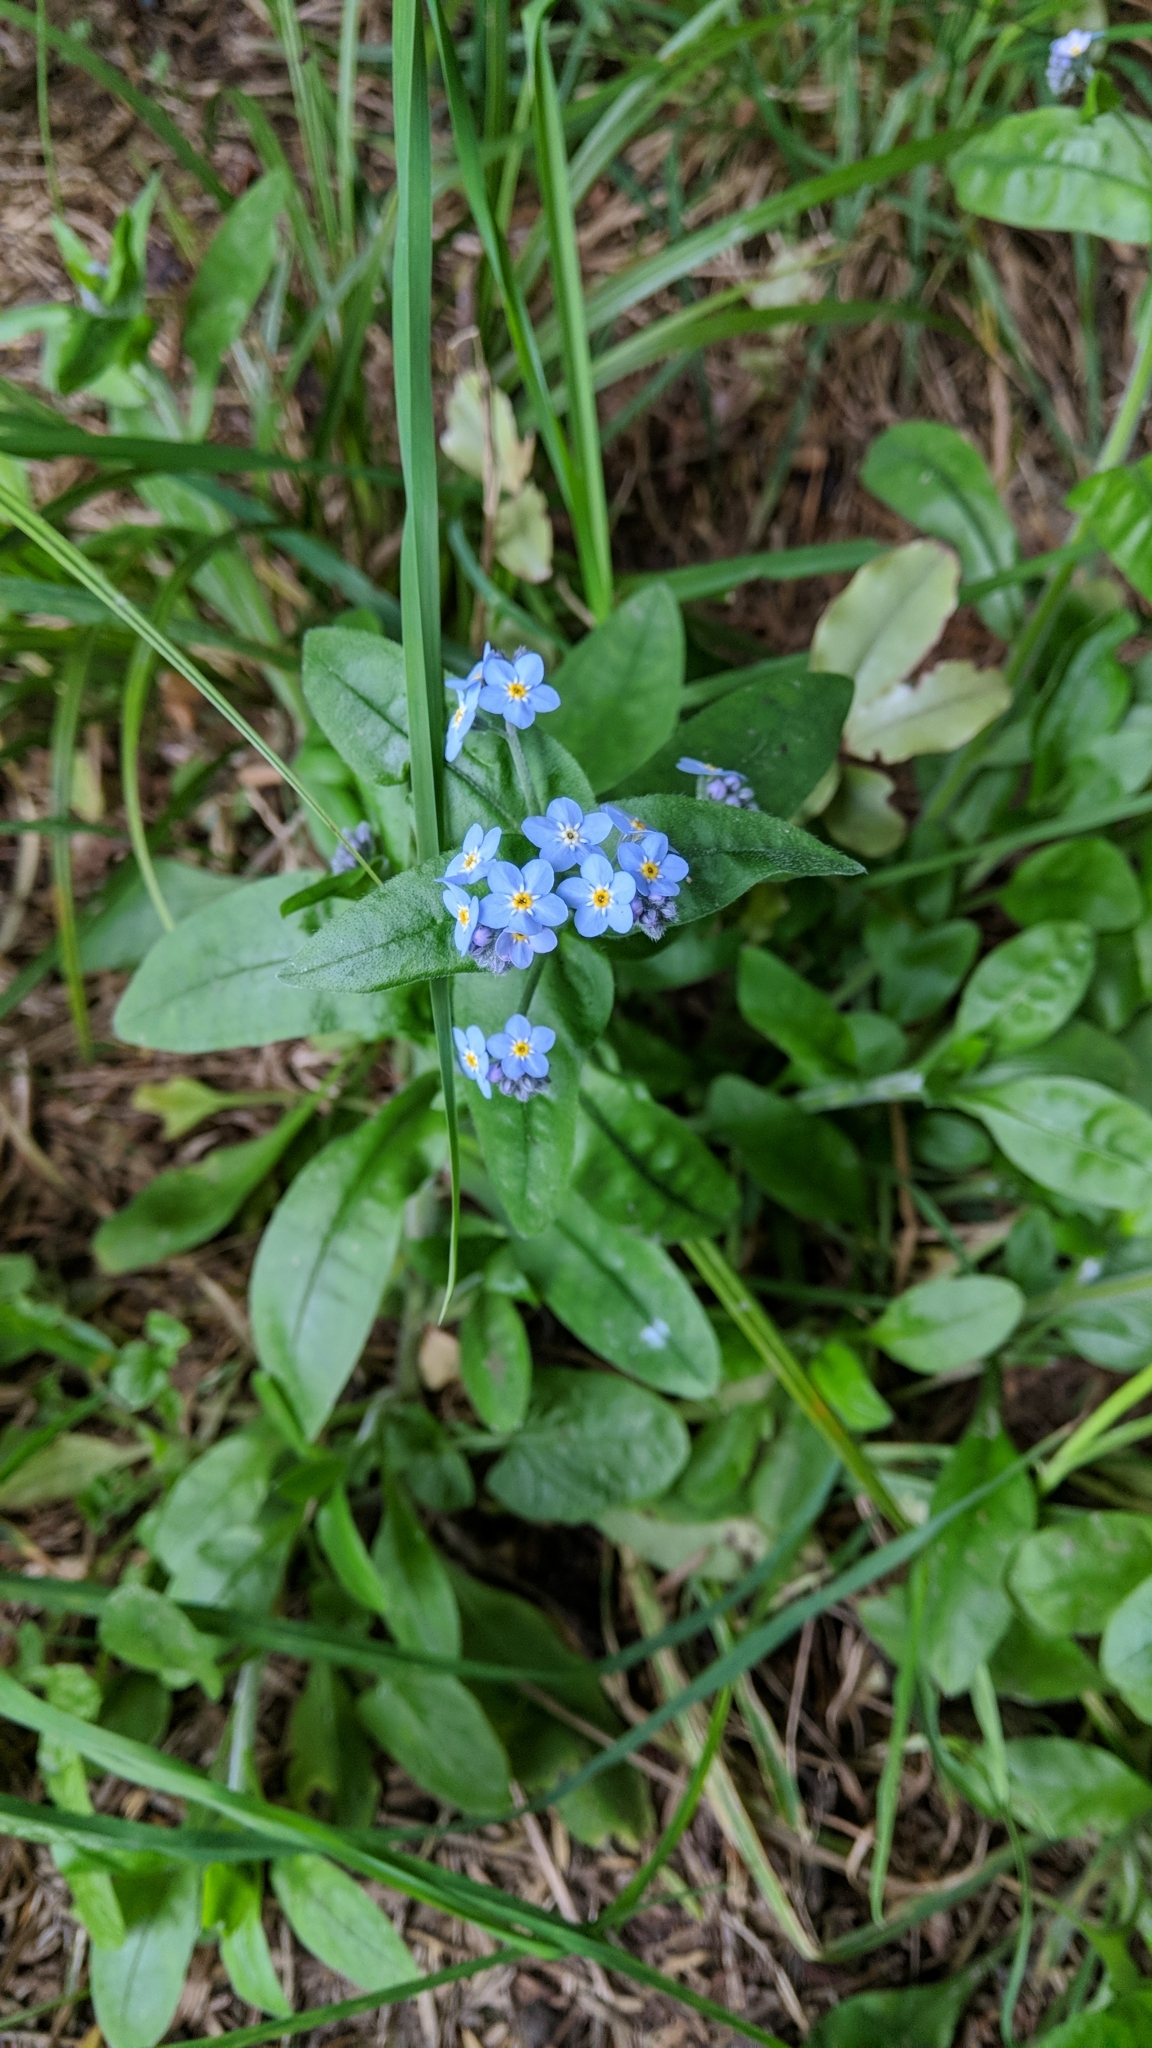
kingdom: Plantae
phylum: Tracheophyta
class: Magnoliopsida
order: Boraginales
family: Boraginaceae
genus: Myosotis
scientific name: Myosotis sylvatica
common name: Wood forget-me-not
